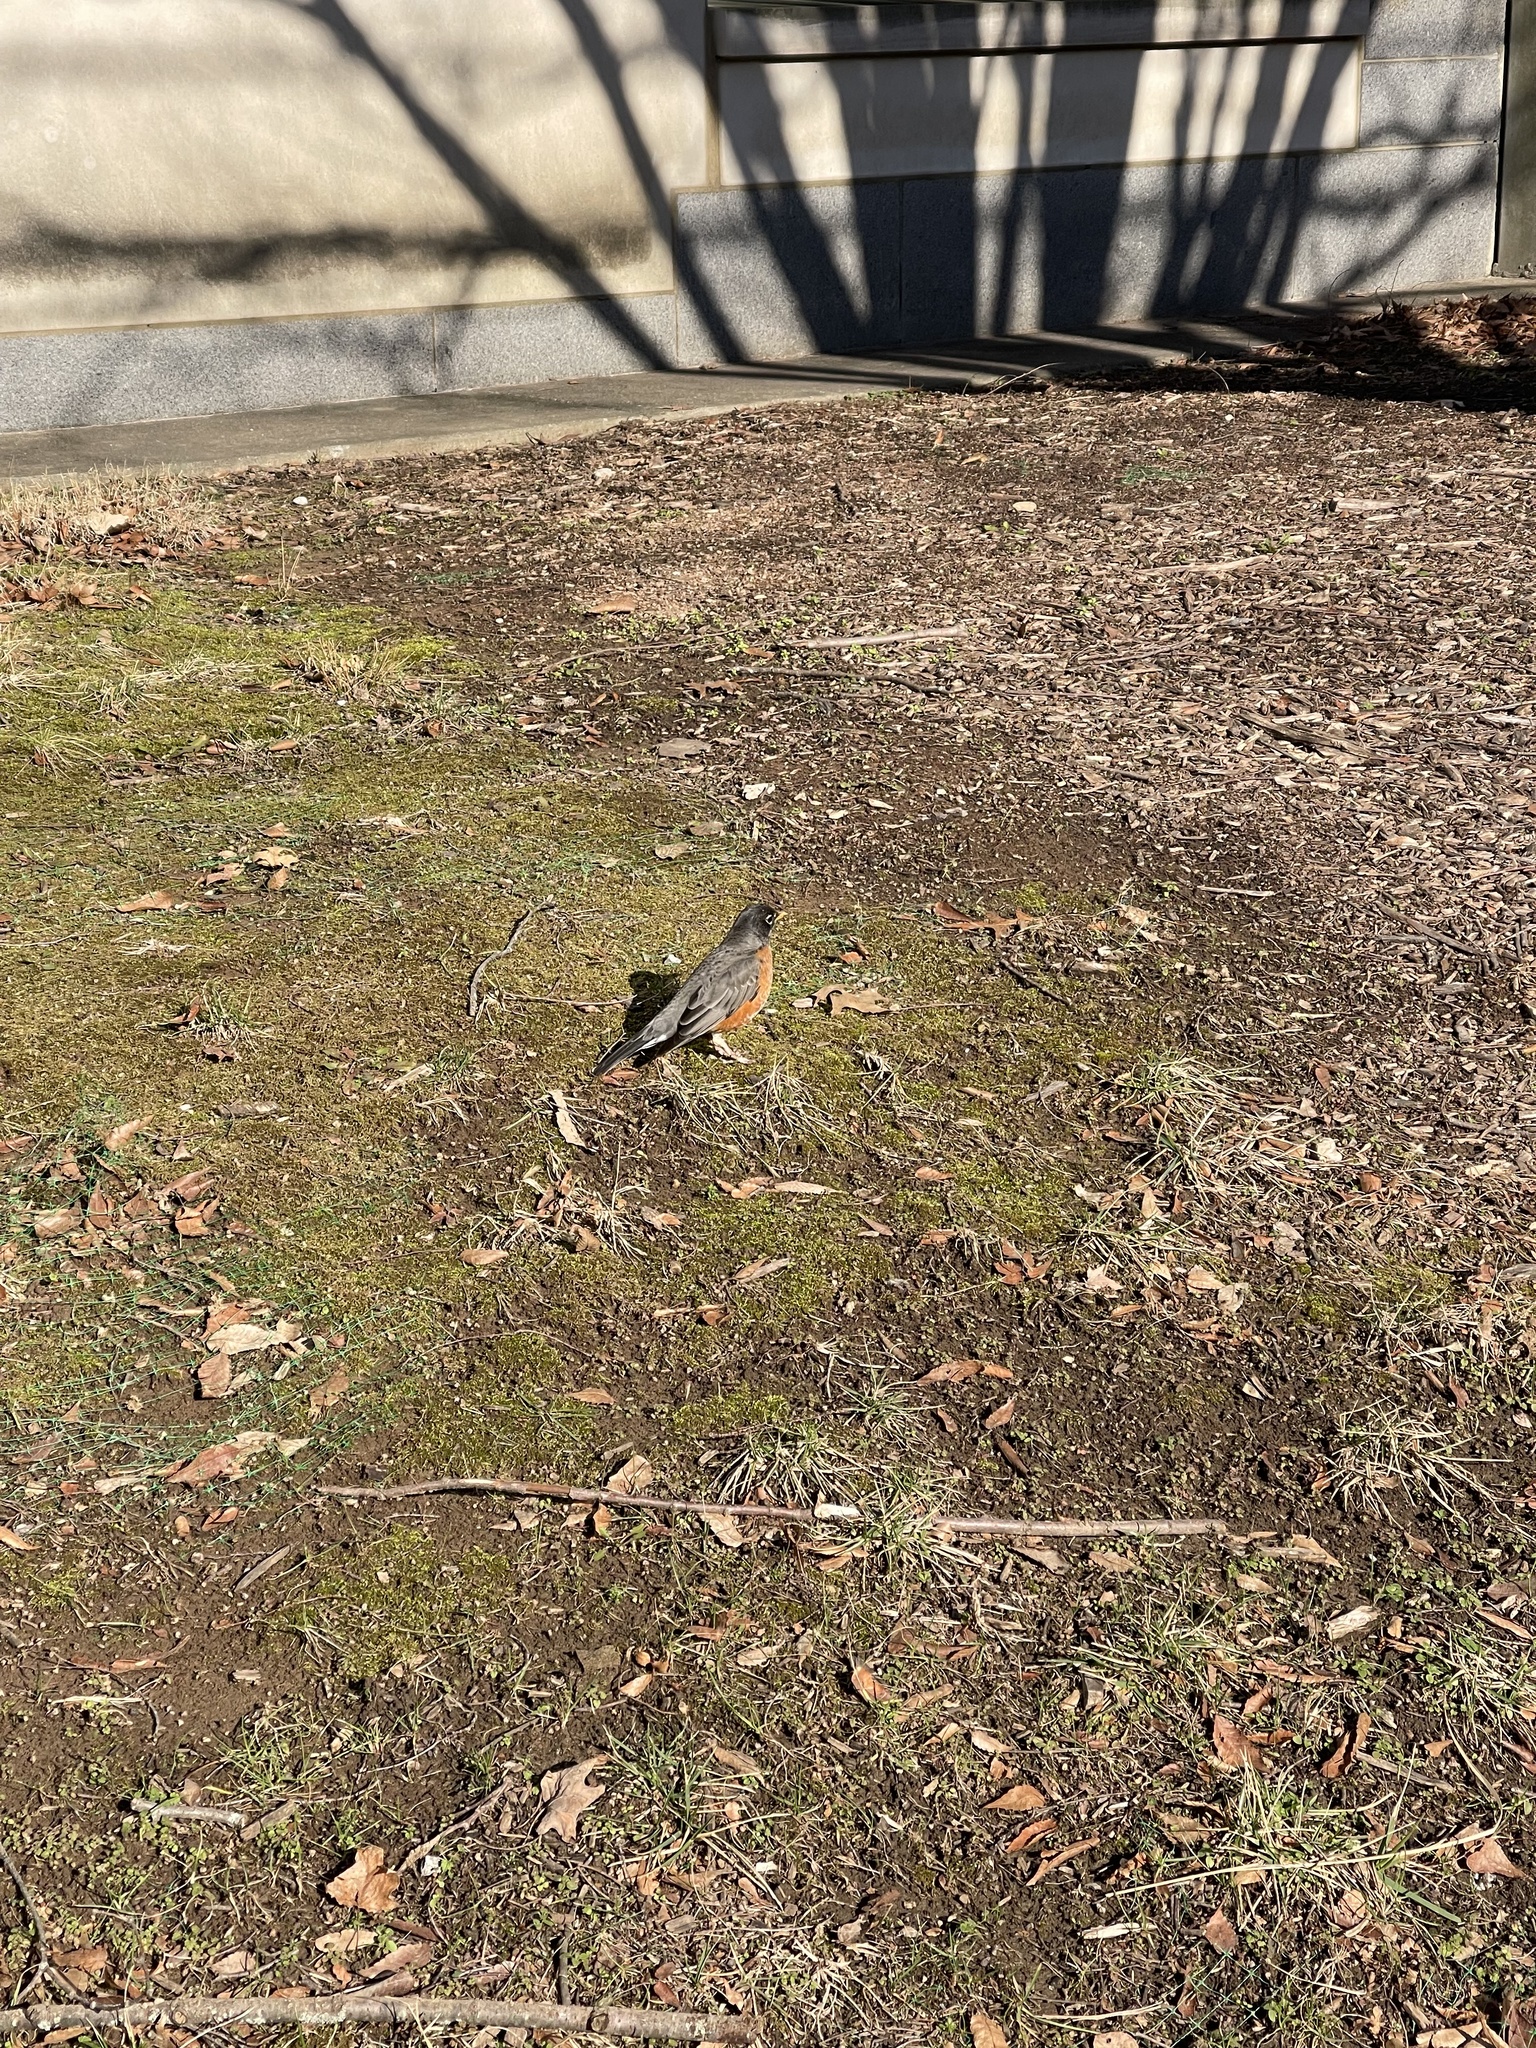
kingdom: Animalia
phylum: Chordata
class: Aves
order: Passeriformes
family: Turdidae
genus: Turdus
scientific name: Turdus migratorius
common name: American robin
